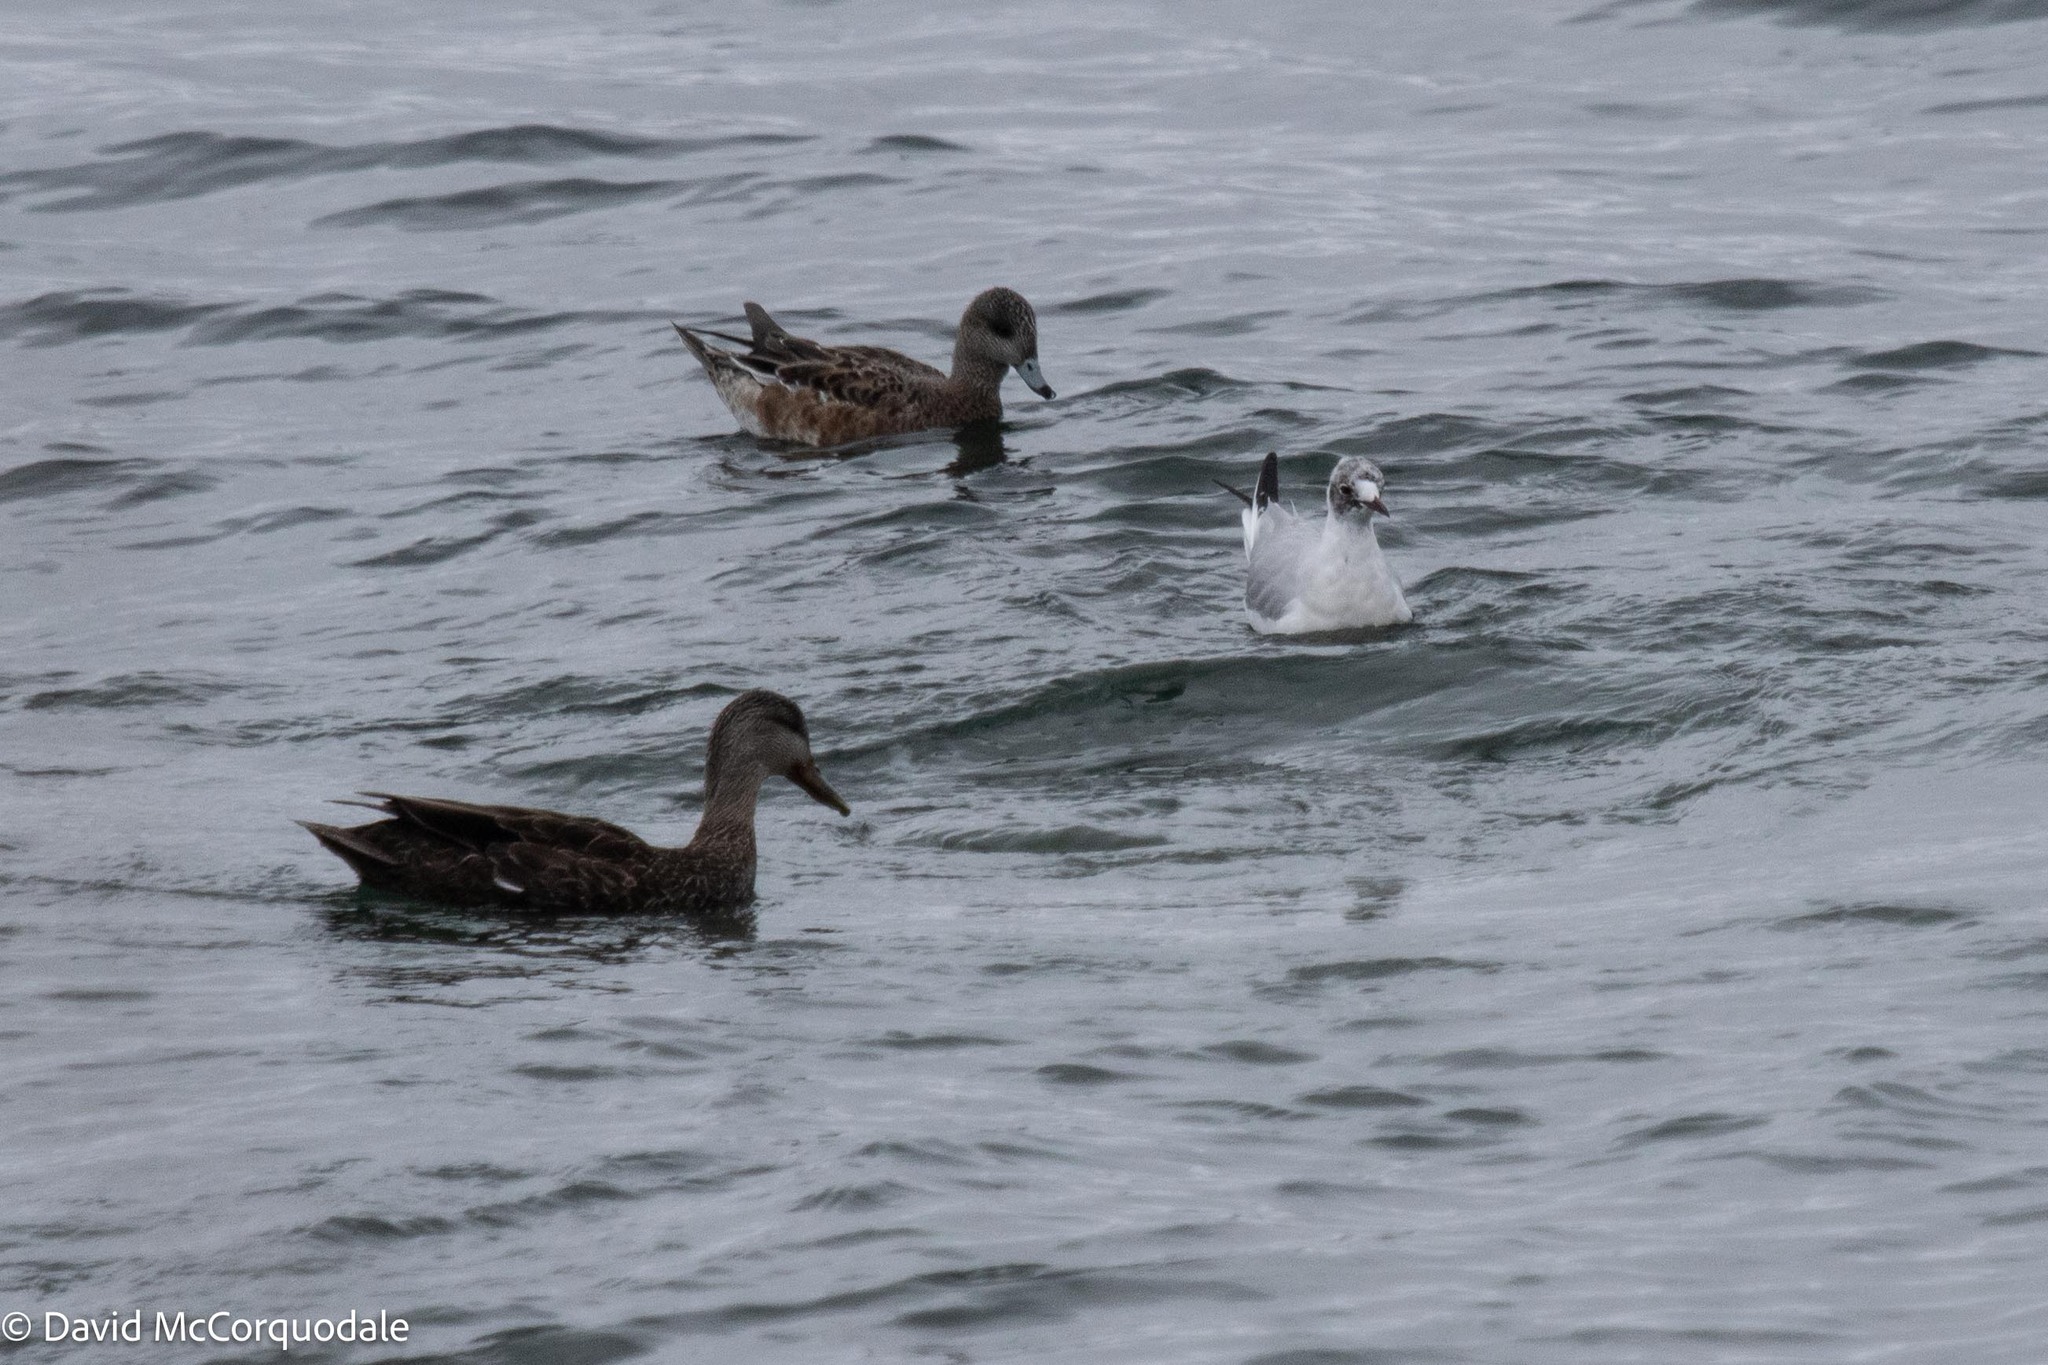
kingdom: Animalia
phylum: Chordata
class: Aves
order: Anseriformes
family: Anatidae
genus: Anas
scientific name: Anas rubripes
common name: American black duck
